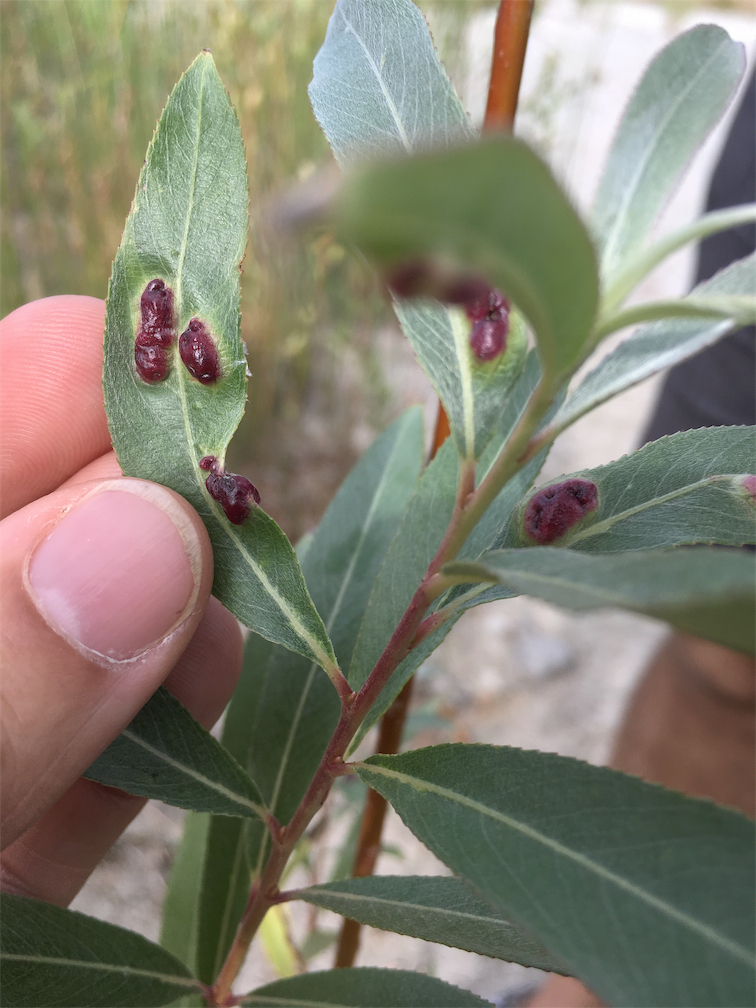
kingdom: Animalia
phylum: Arthropoda
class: Insecta
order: Hymenoptera
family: Tenthredinidae
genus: Pontania
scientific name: Pontania proxima
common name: Common sawfly
